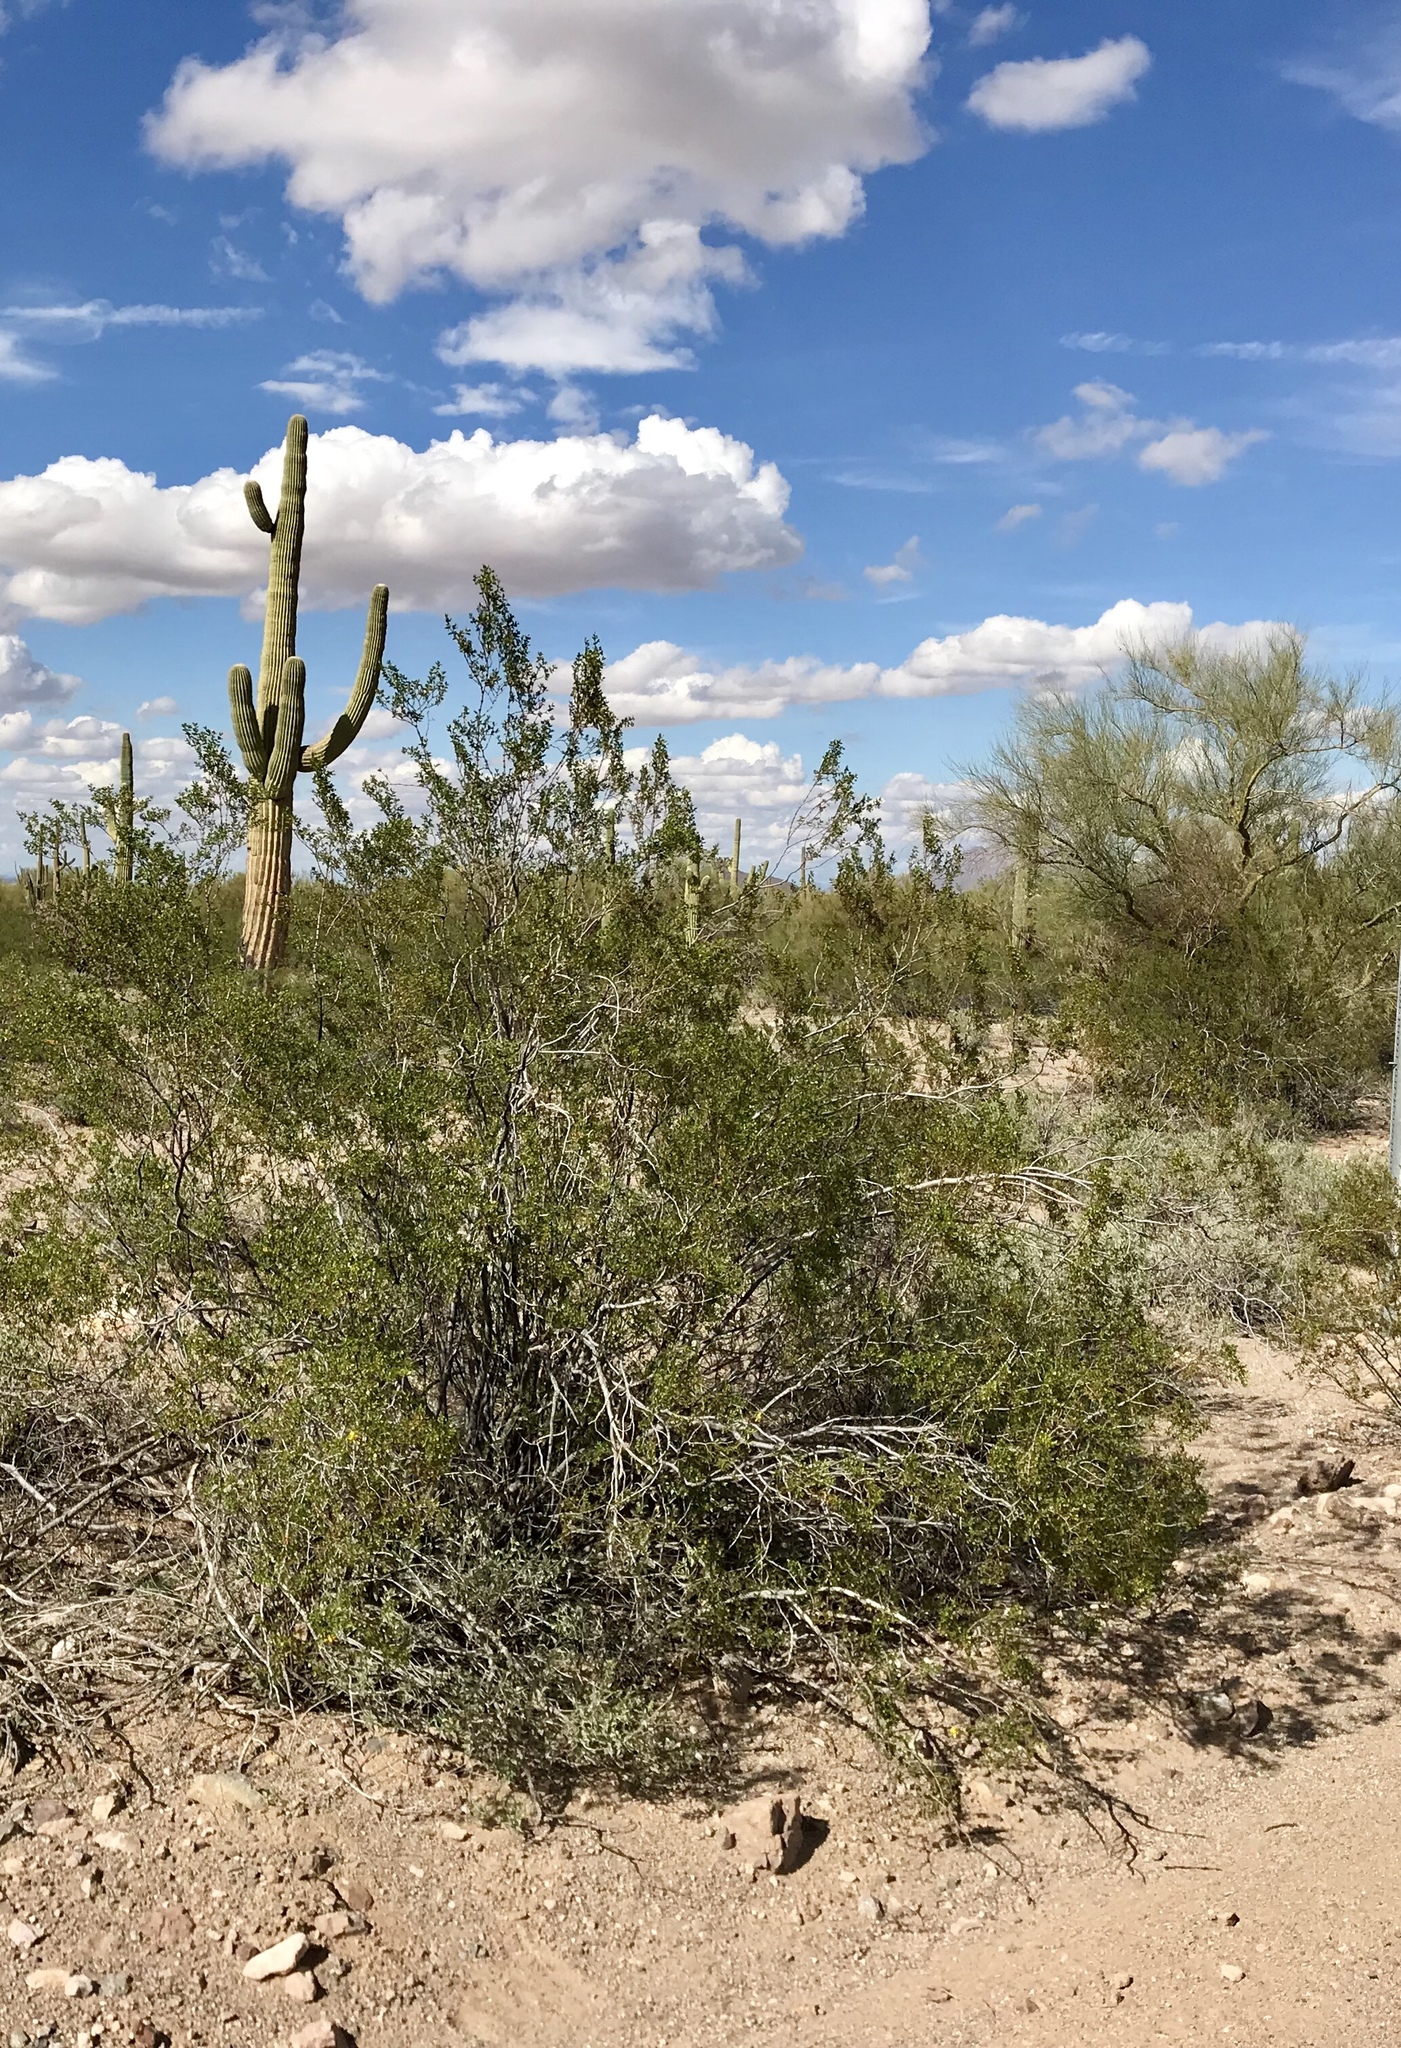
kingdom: Plantae
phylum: Tracheophyta
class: Magnoliopsida
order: Zygophyllales
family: Zygophyllaceae
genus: Larrea
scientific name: Larrea tridentata
